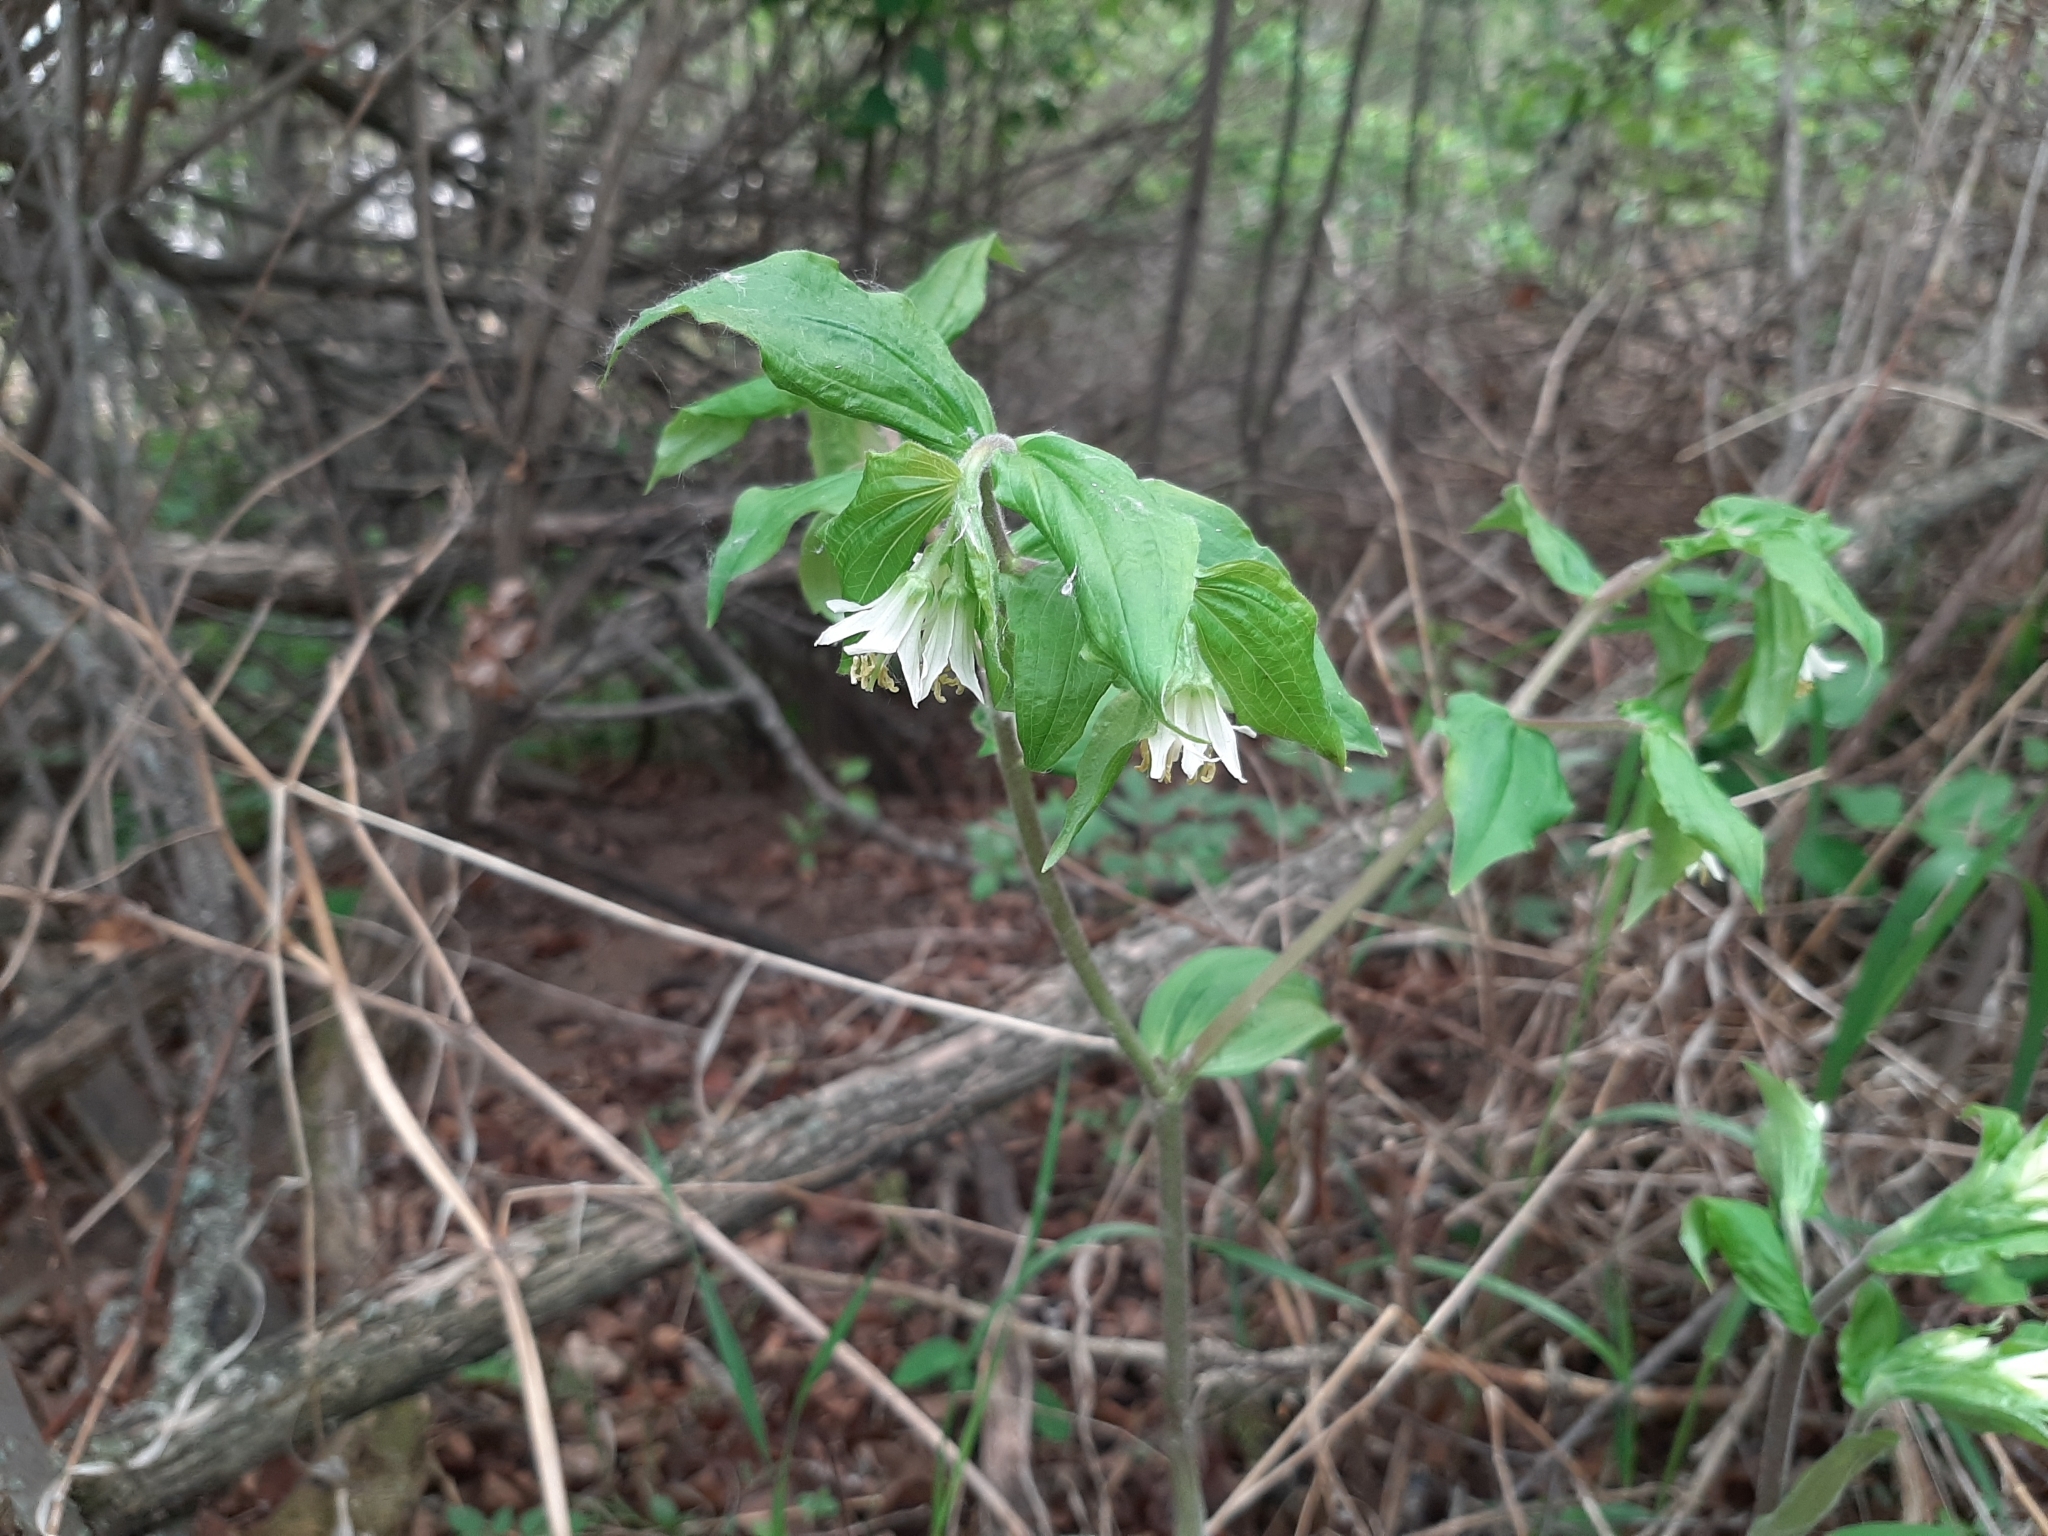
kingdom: Plantae
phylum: Tracheophyta
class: Liliopsida
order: Liliales
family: Liliaceae
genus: Prosartes
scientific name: Prosartes trachycarpa
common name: Rough-fruit fairy-bells
